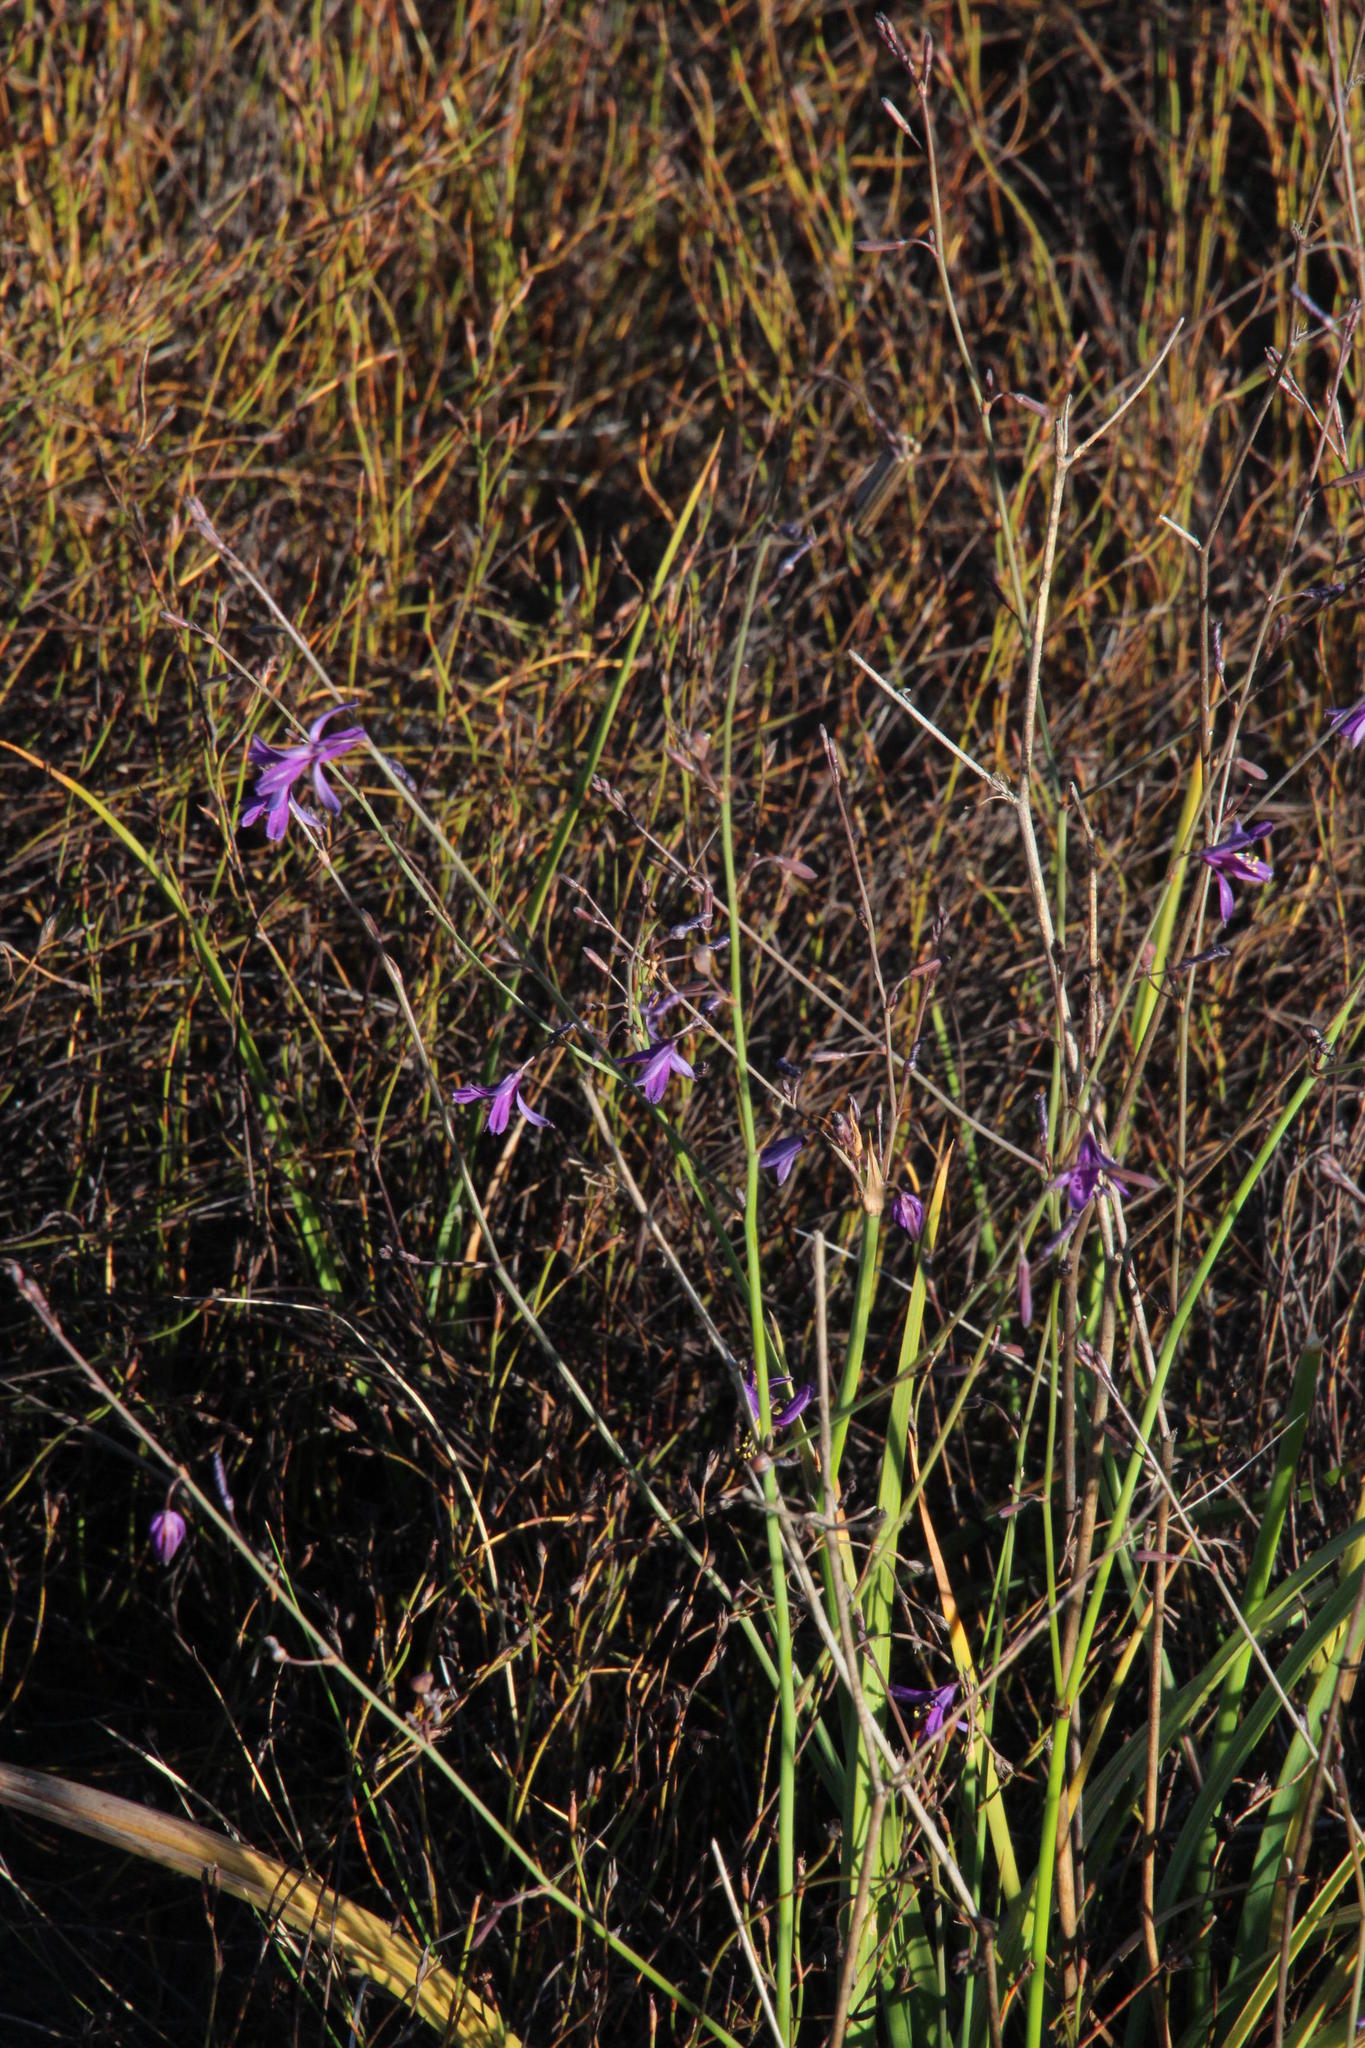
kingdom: Plantae
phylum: Tracheophyta
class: Liliopsida
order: Asparagales
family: Asphodelaceae
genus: Caesia
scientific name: Caesia sabulosa
